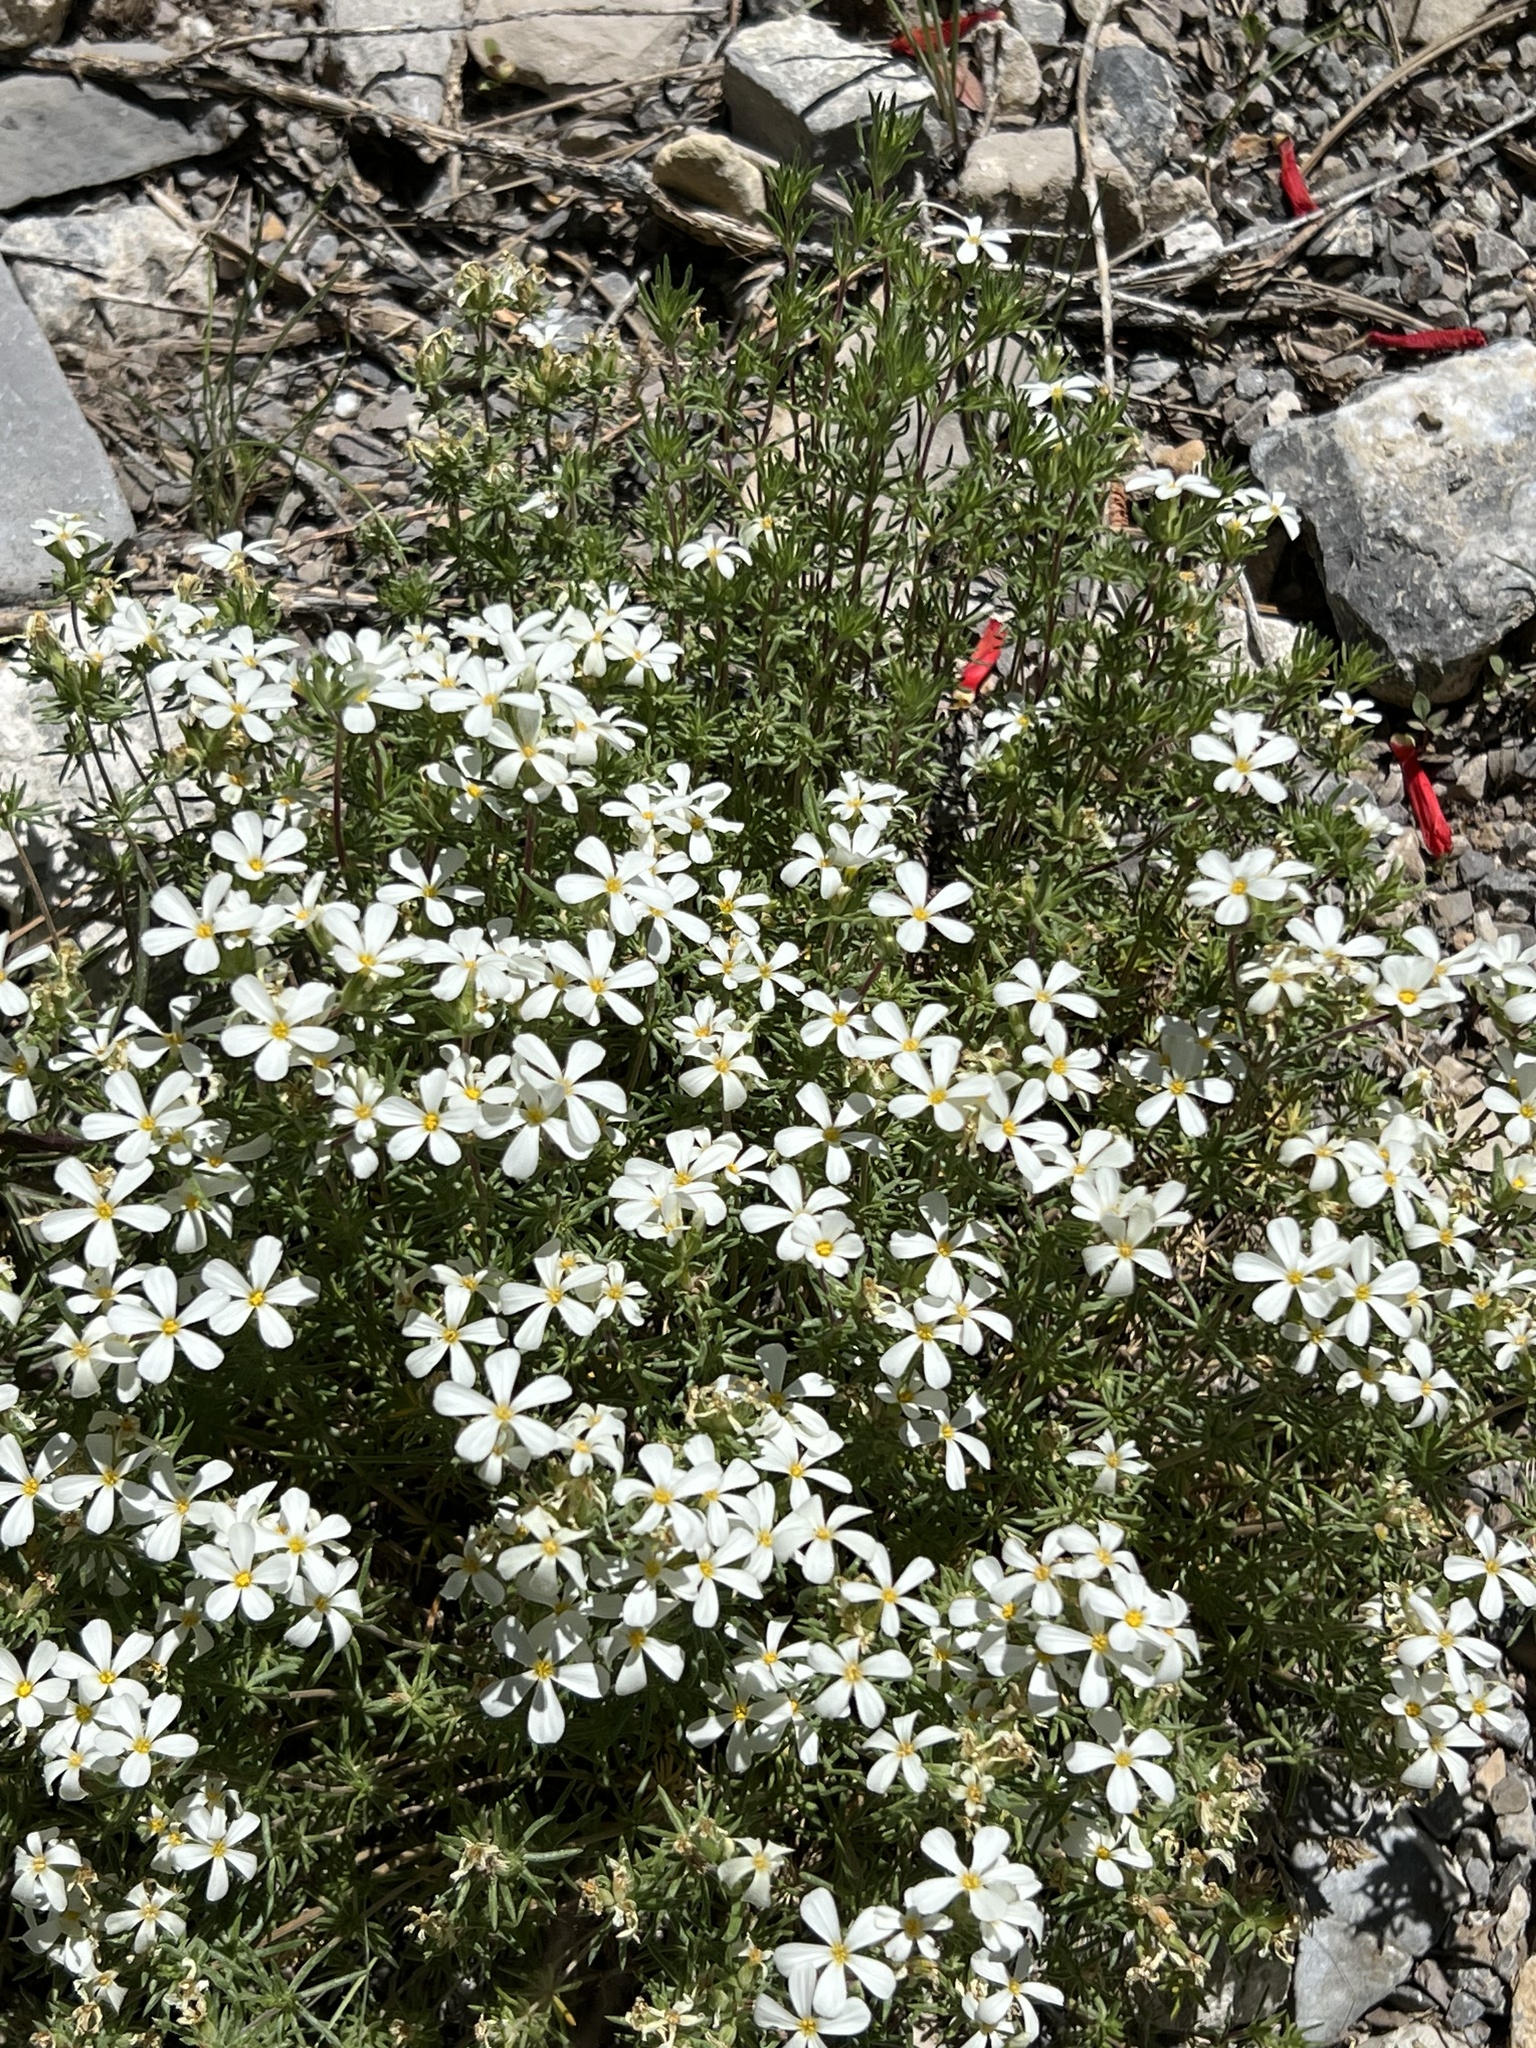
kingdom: Plantae
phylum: Tracheophyta
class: Magnoliopsida
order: Ericales
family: Polemoniaceae
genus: Leptosiphon
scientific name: Leptosiphon nuttallii
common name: Nuttall's linanthus
